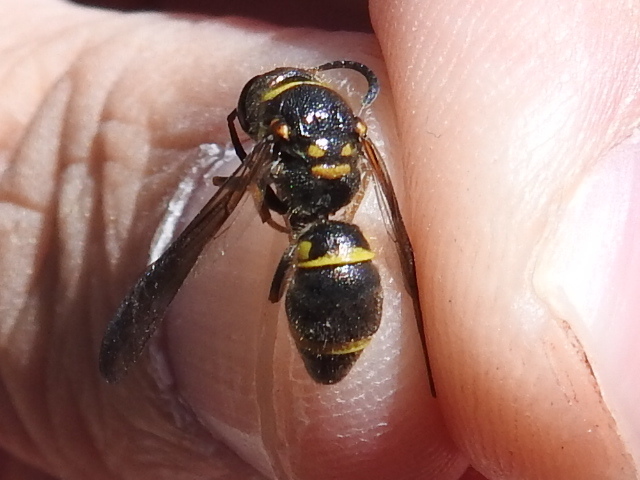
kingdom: Animalia
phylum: Arthropoda
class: Insecta
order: Hymenoptera
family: Vespidae
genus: Ancistrocerus
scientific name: Ancistrocerus campestris
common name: Smiling mason wasp
